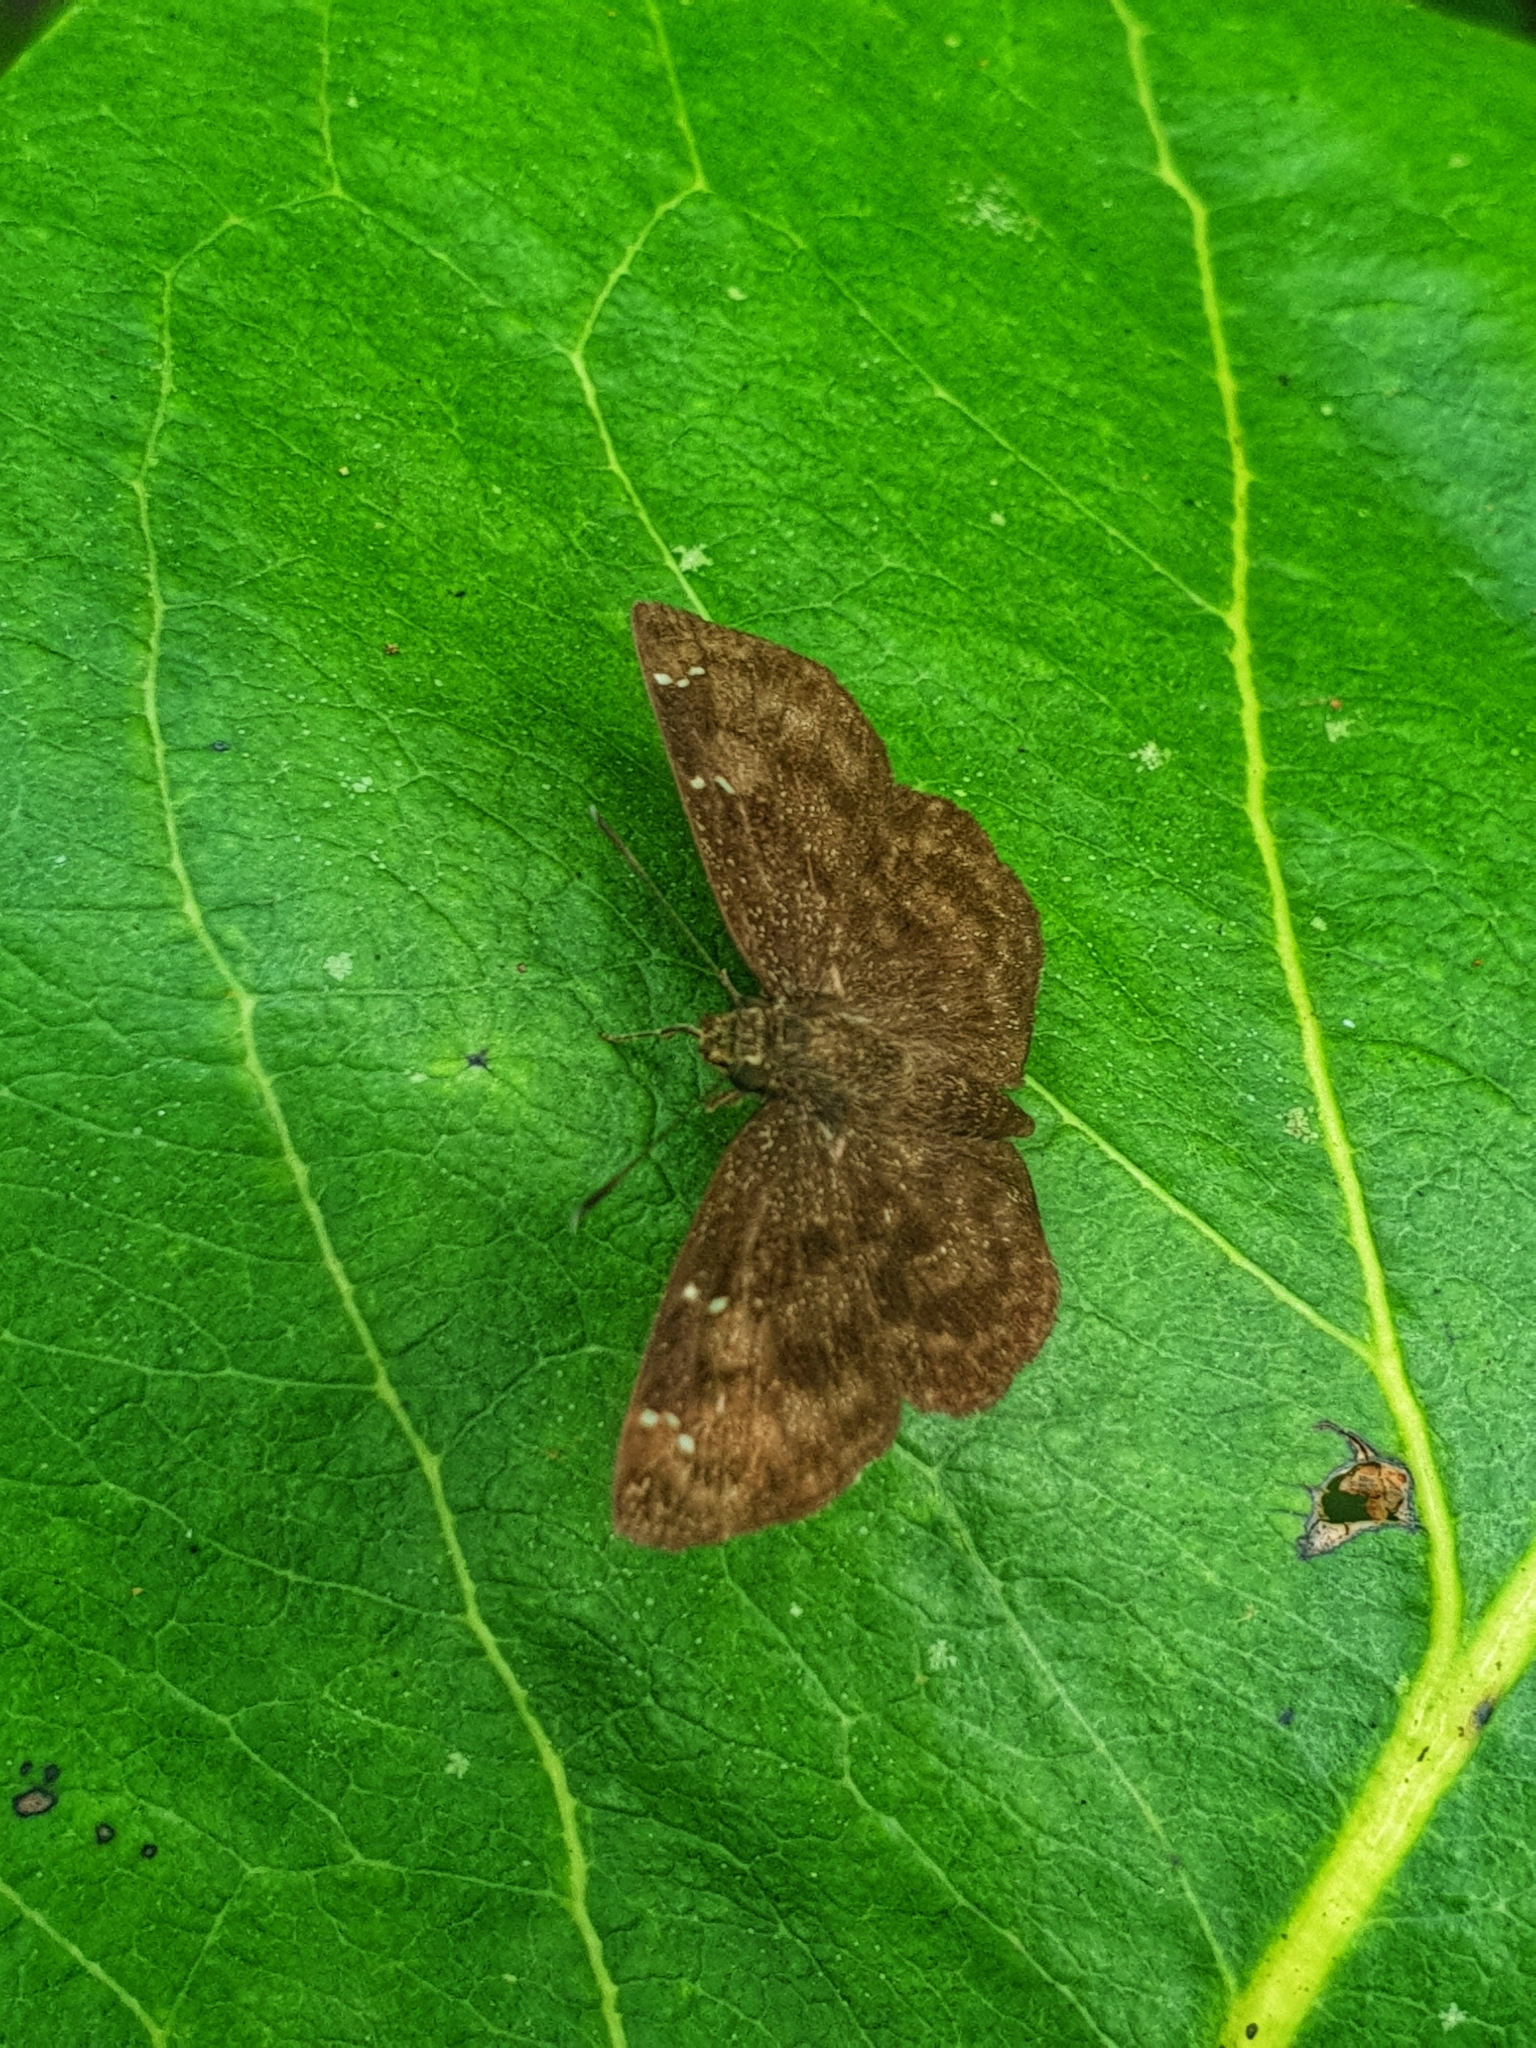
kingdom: Animalia
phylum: Arthropoda
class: Insecta
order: Lepidoptera
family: Hesperiidae
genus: Sarangesa
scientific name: Sarangesa dasahara
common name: Common small flat
